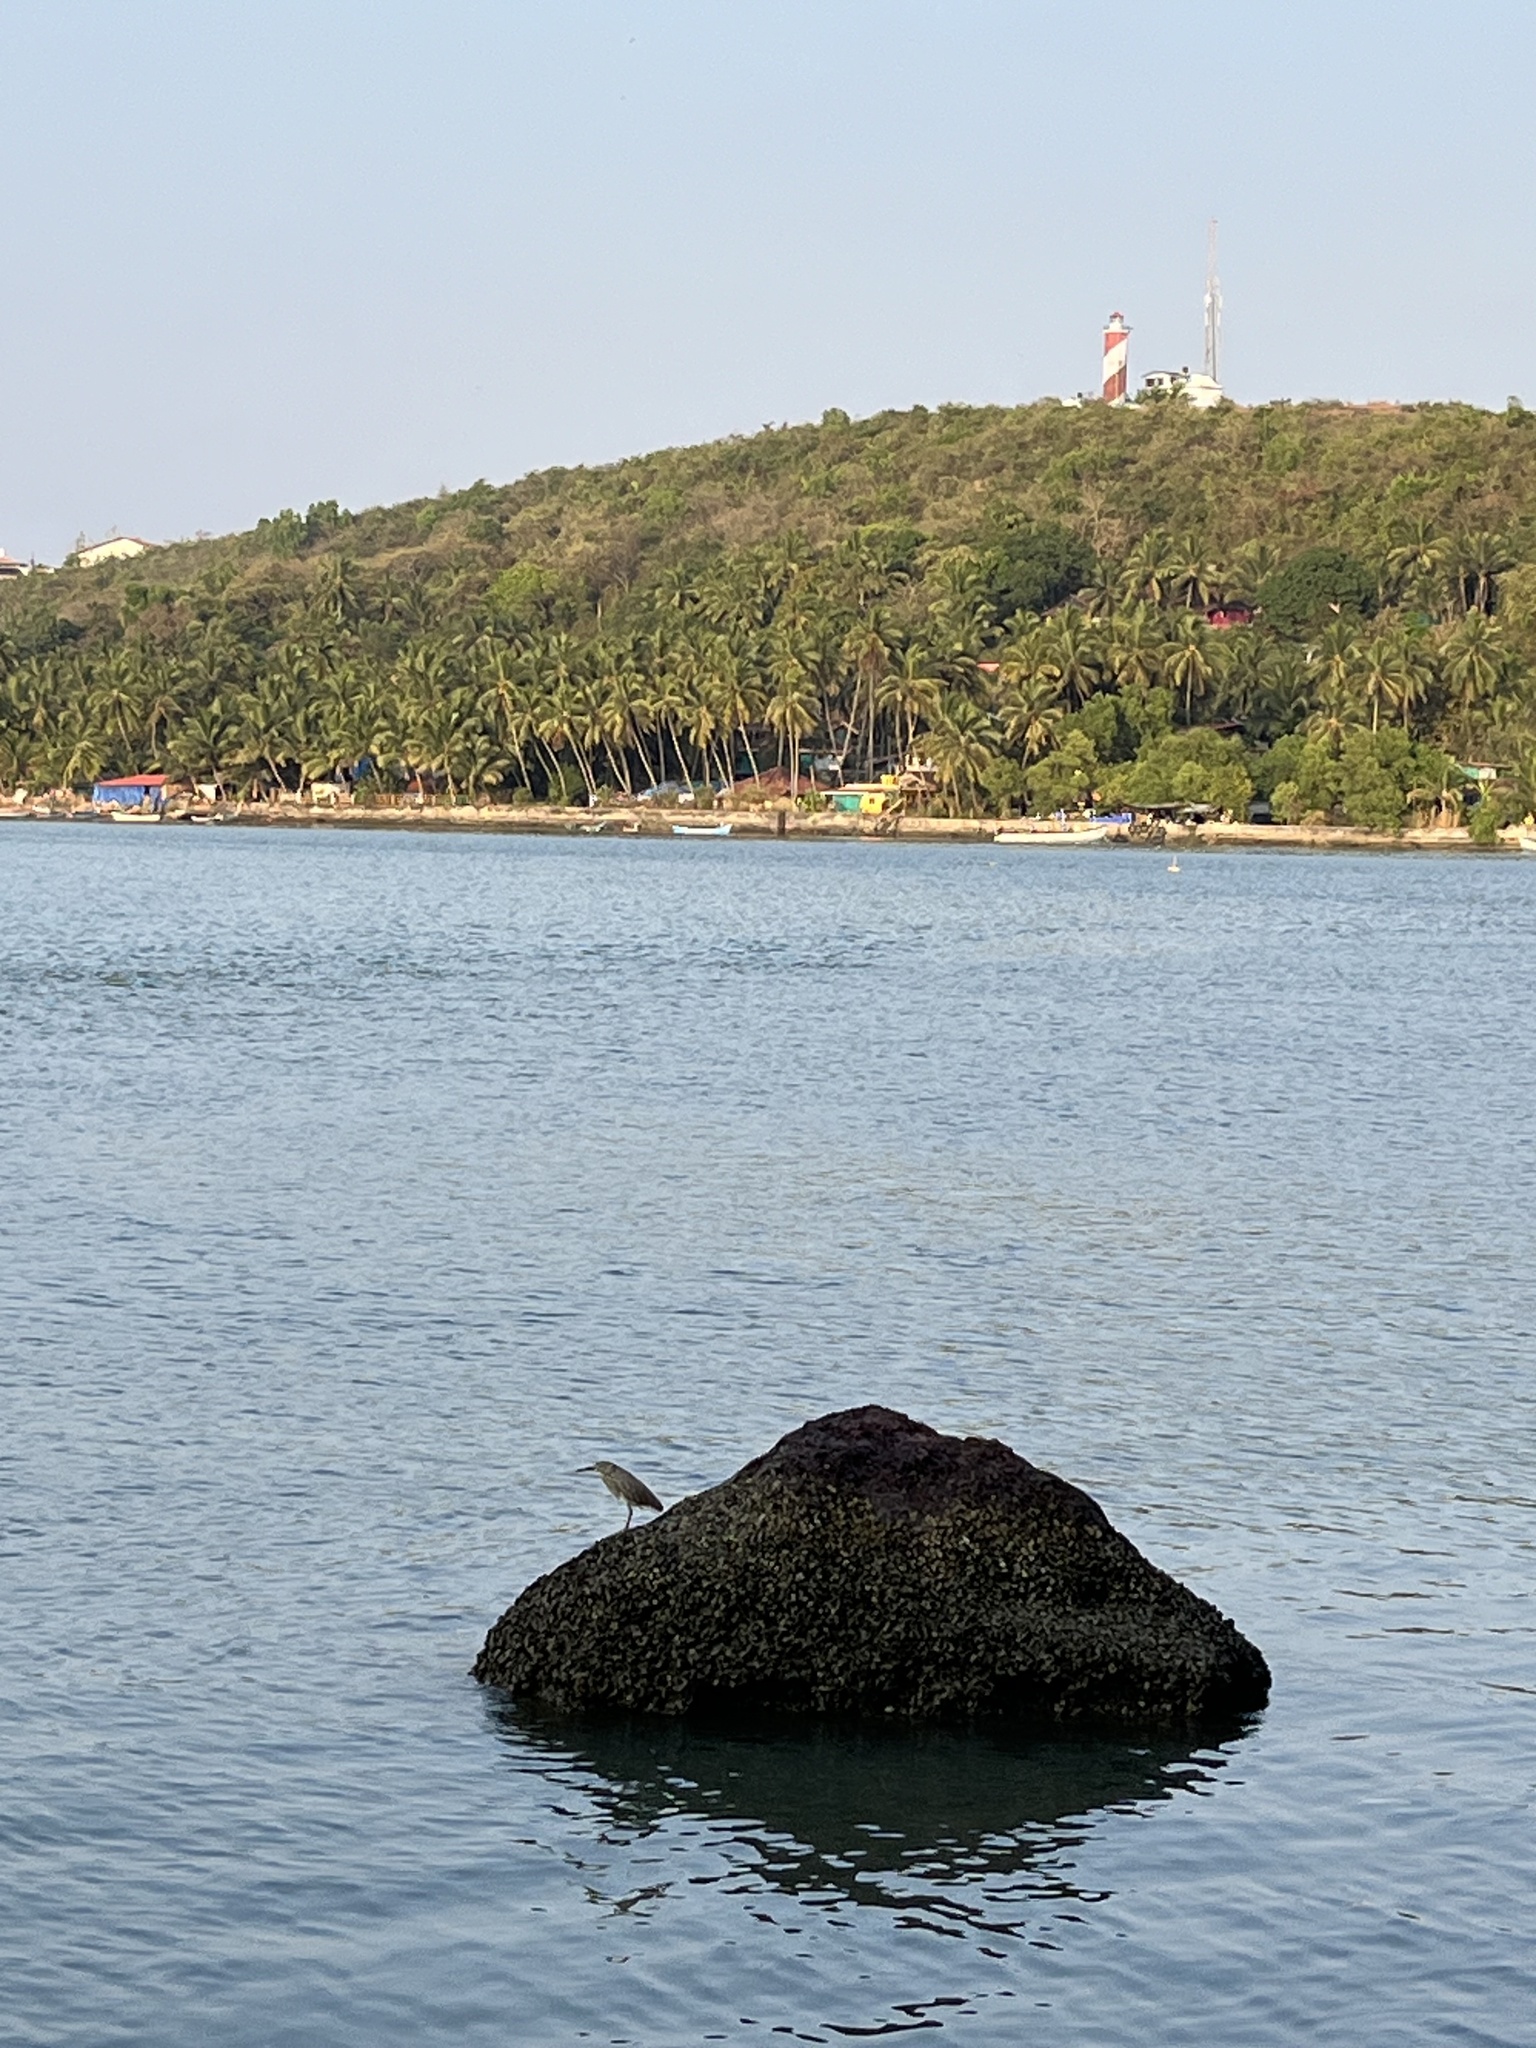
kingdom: Animalia
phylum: Chordata
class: Aves
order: Pelecaniformes
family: Ardeidae
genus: Ardeola
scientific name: Ardeola grayii
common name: Indian pond heron
